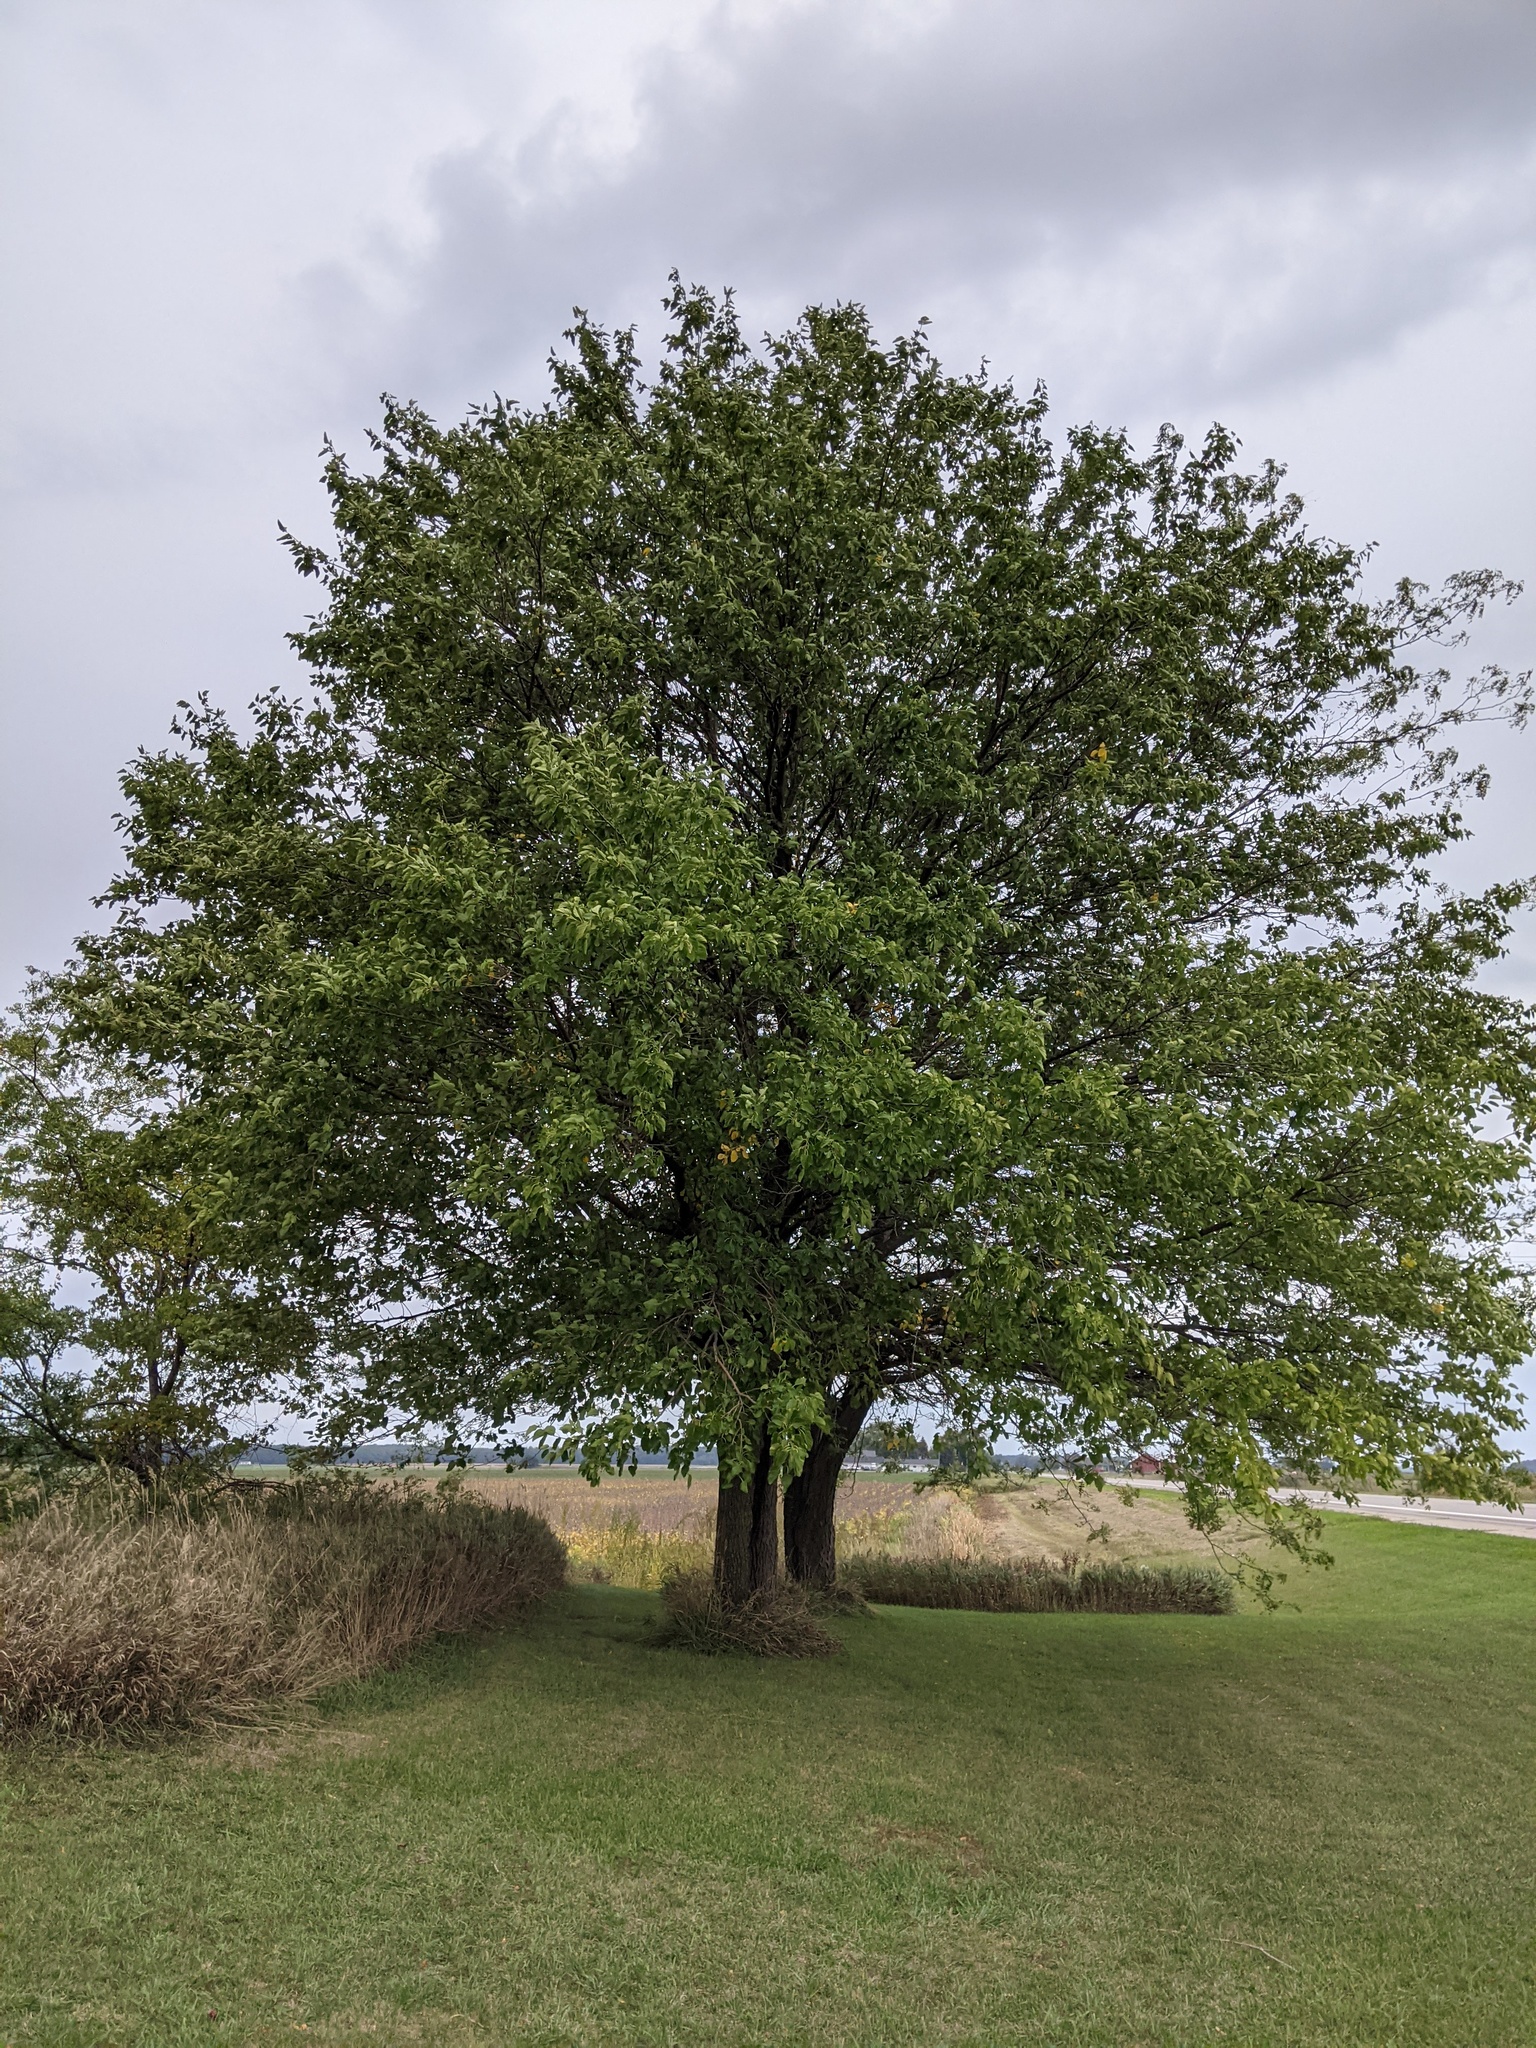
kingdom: Plantae
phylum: Tracheophyta
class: Magnoliopsida
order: Rosales
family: Moraceae
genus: Morus
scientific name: Morus alba
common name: White mulberry
